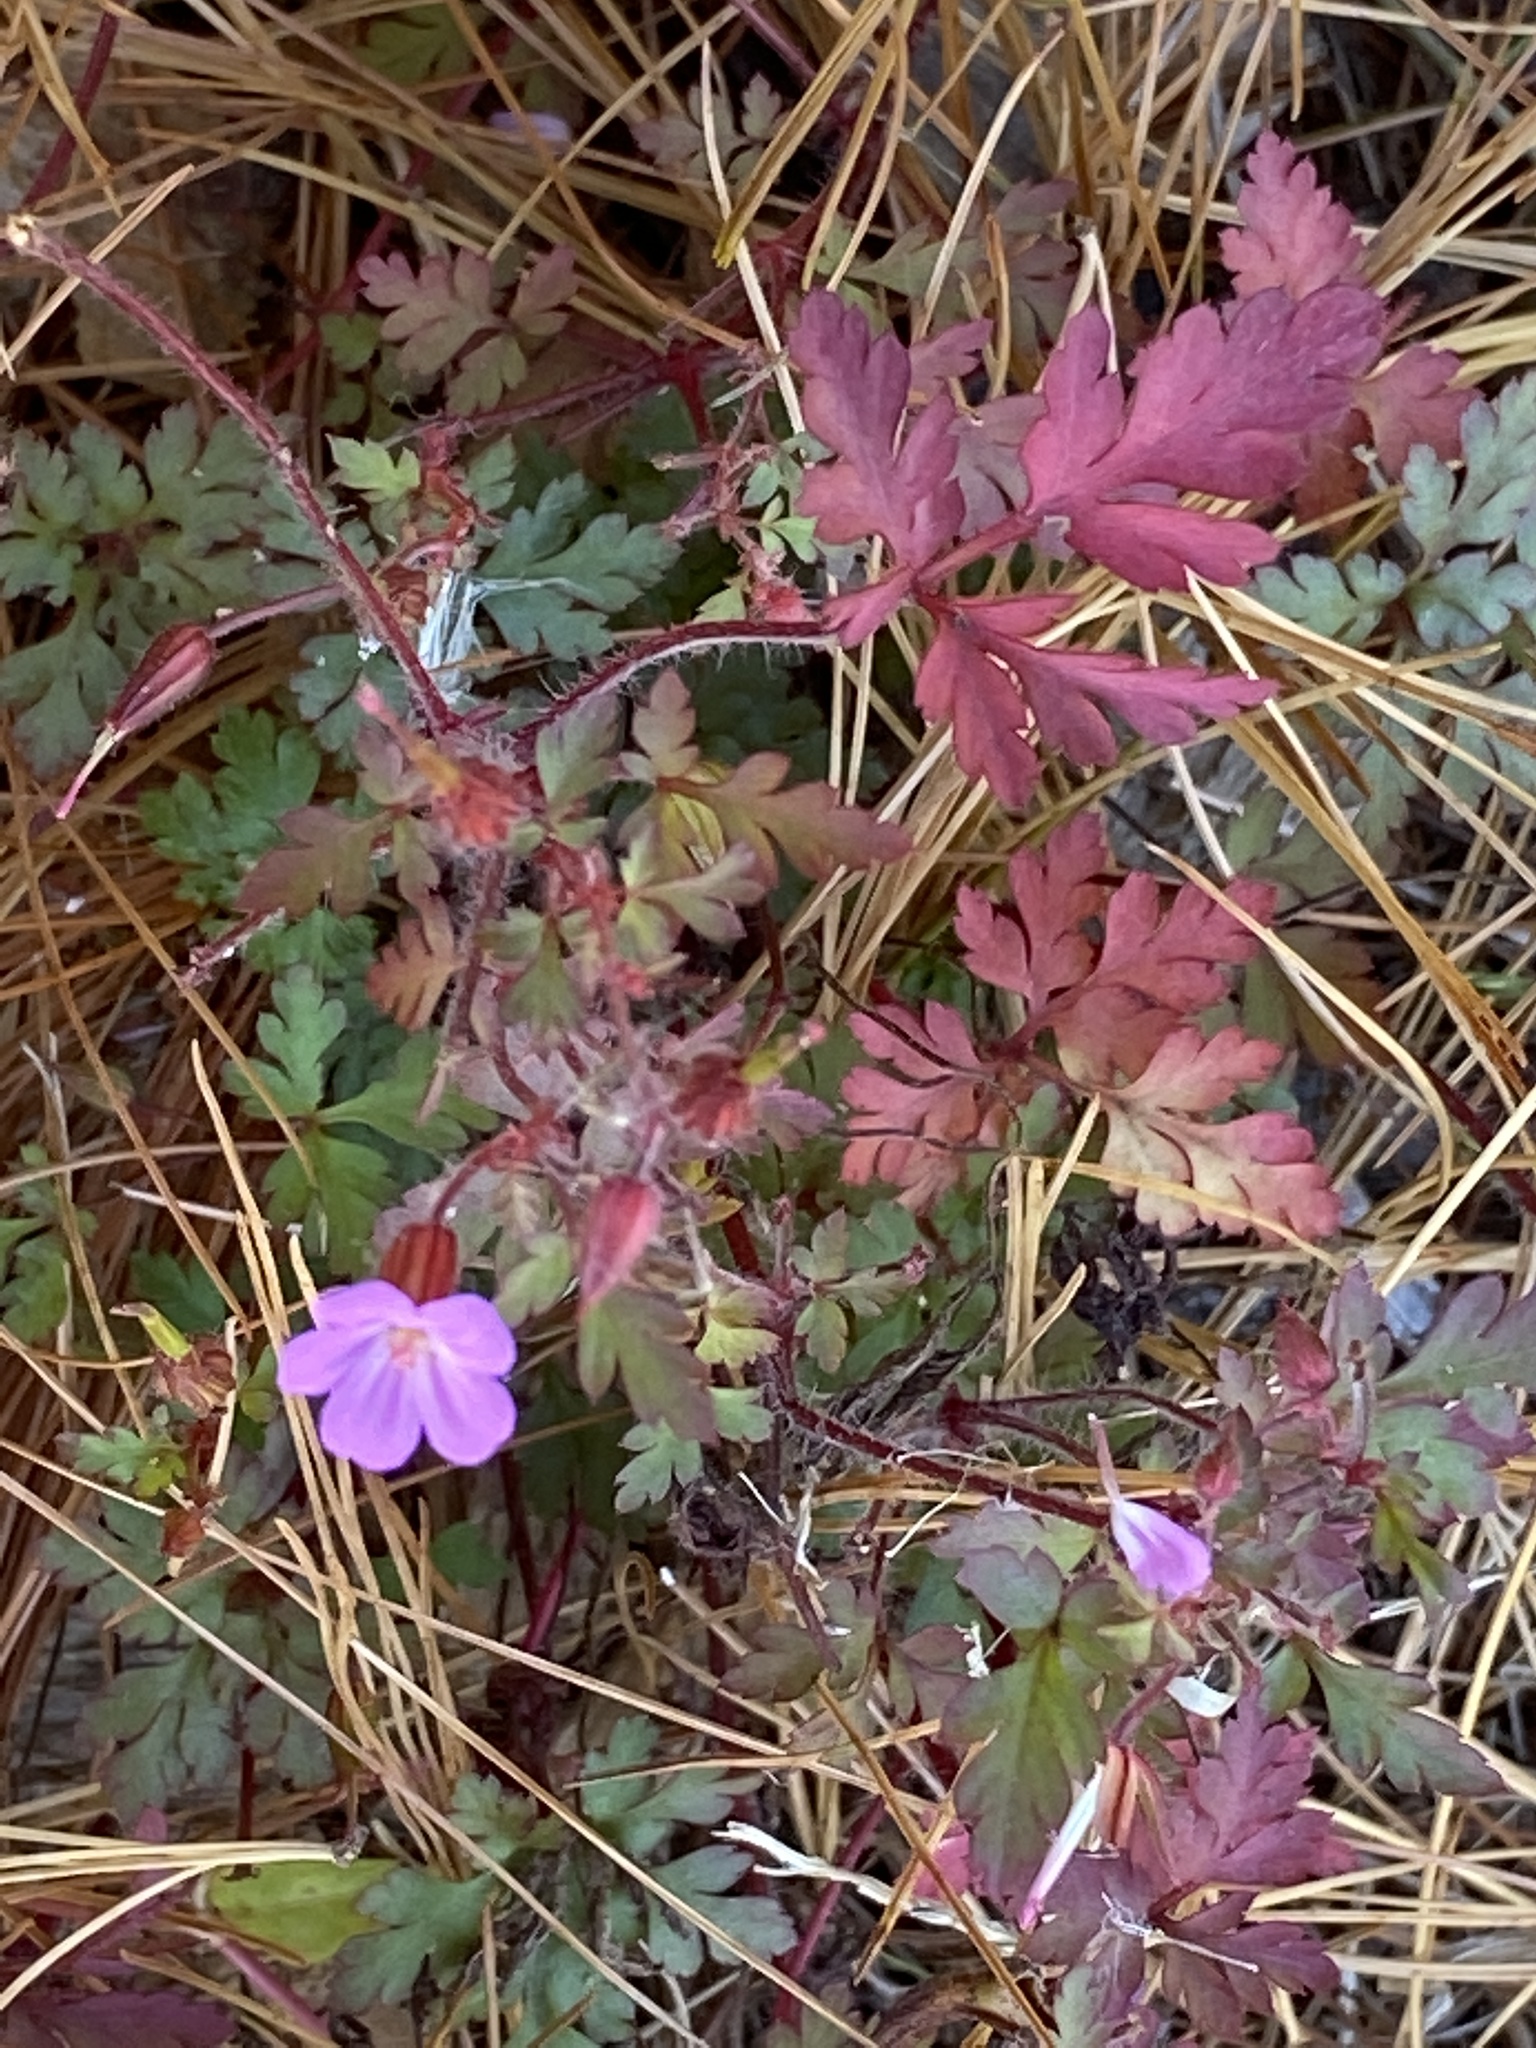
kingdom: Plantae
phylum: Tracheophyta
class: Magnoliopsida
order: Geraniales
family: Geraniaceae
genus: Geranium
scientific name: Geranium robertianum
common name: Herb-robert
